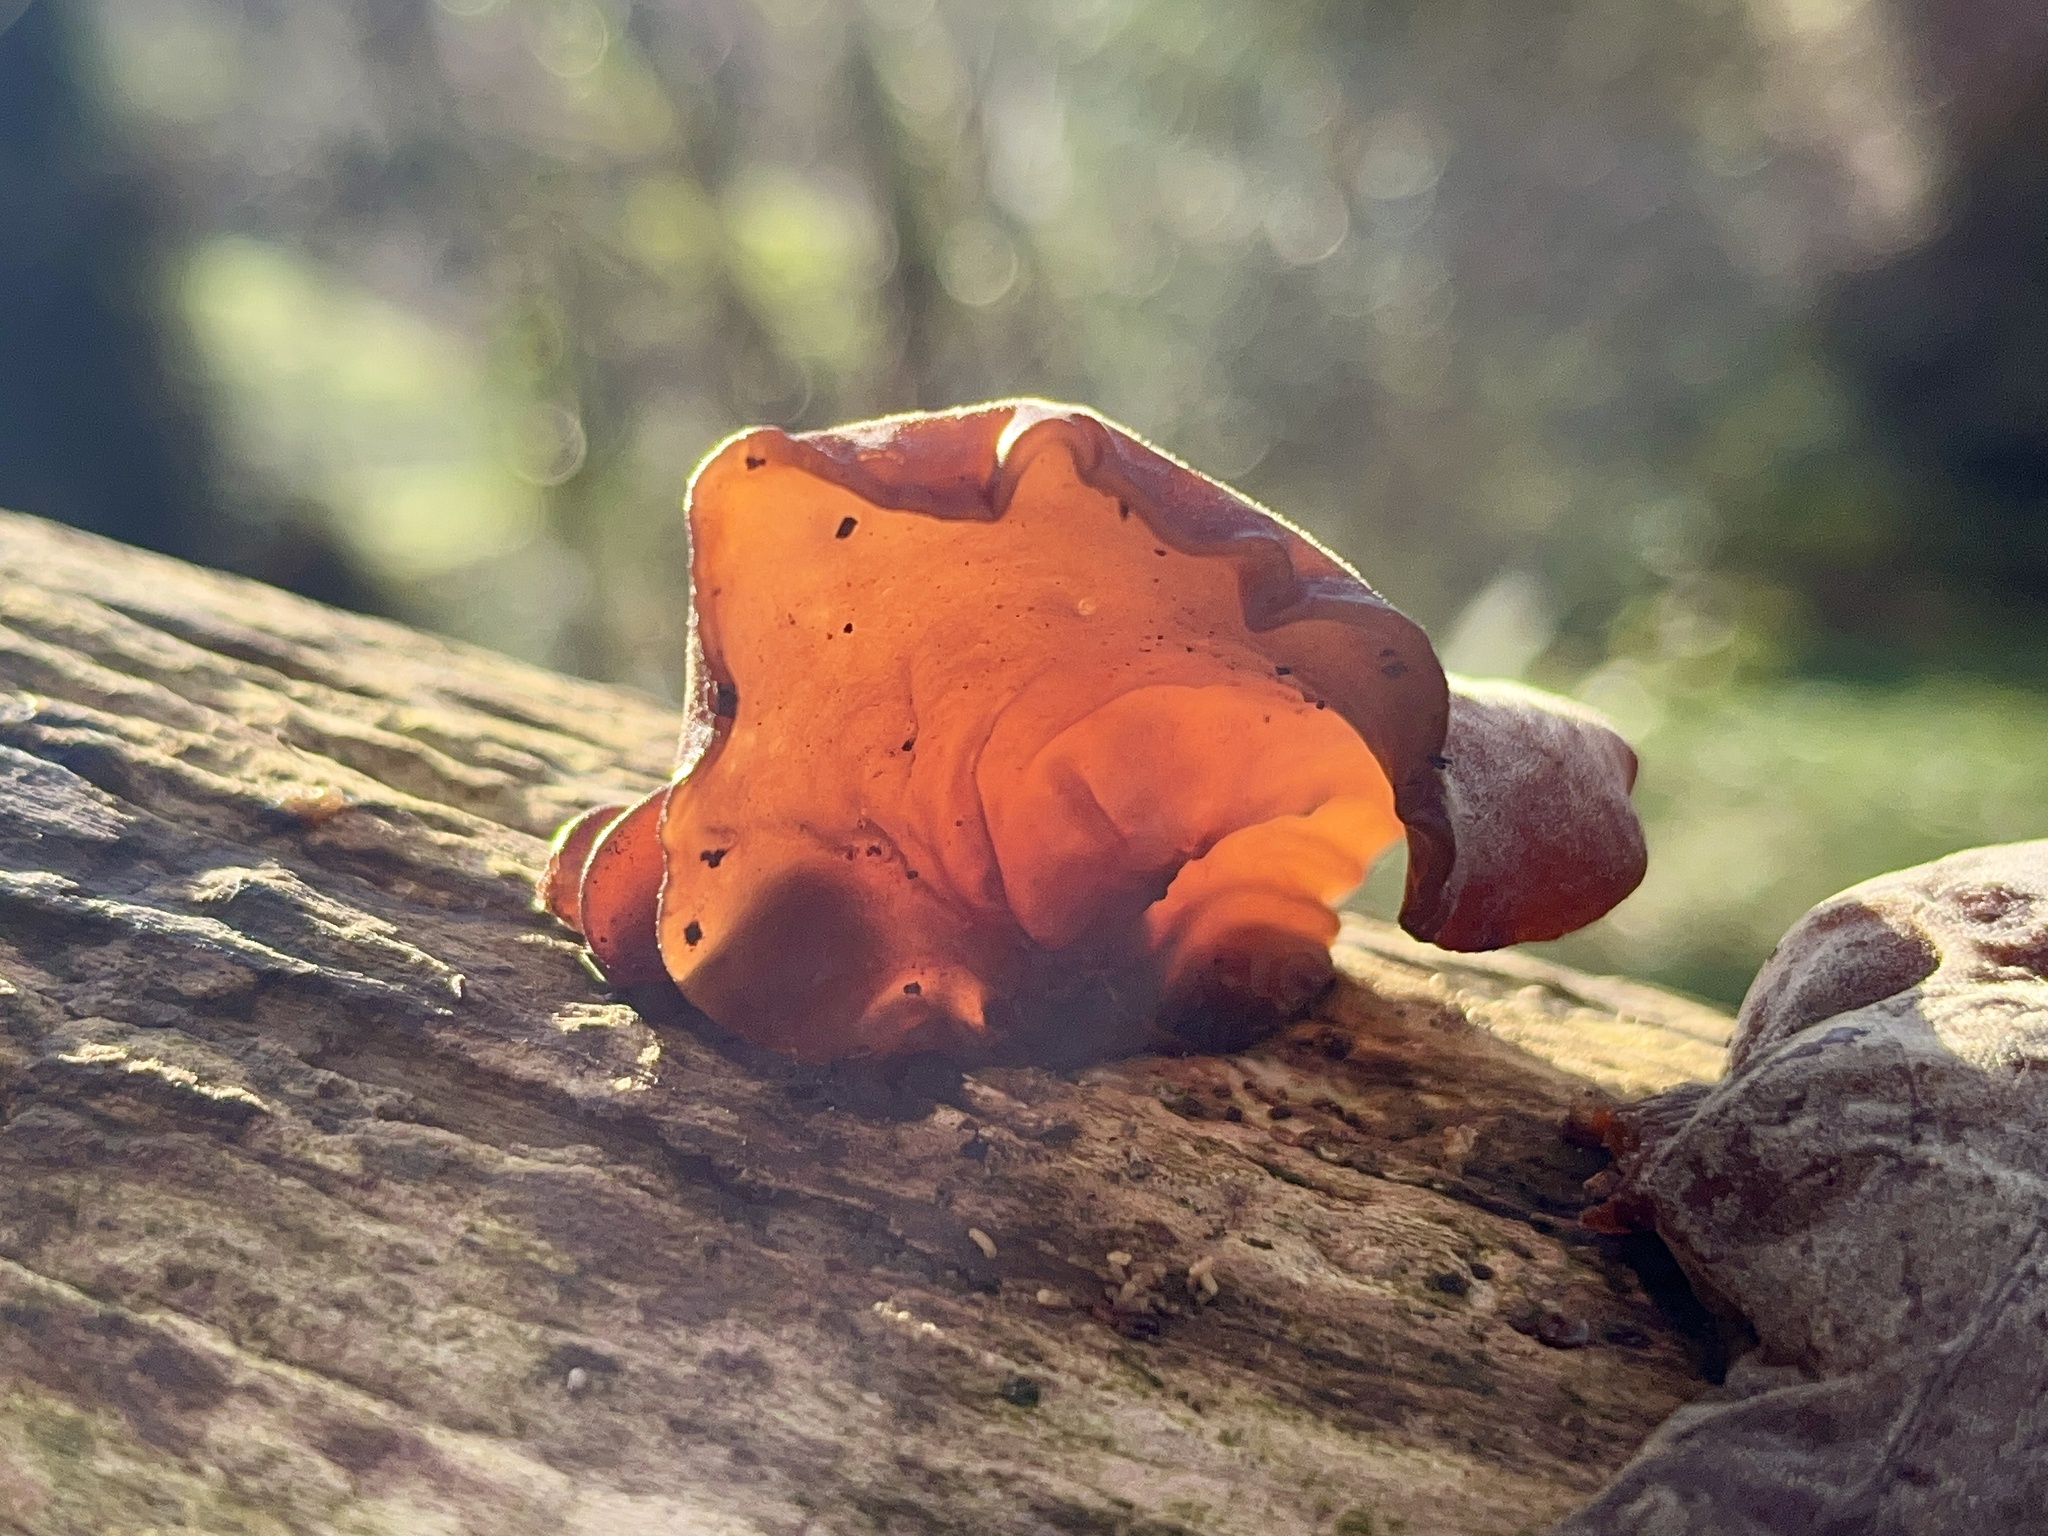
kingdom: Fungi
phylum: Basidiomycota
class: Agaricomycetes
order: Auriculariales
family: Auriculariaceae
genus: Auricularia
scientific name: Auricularia auricula-judae
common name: Jelly ear
